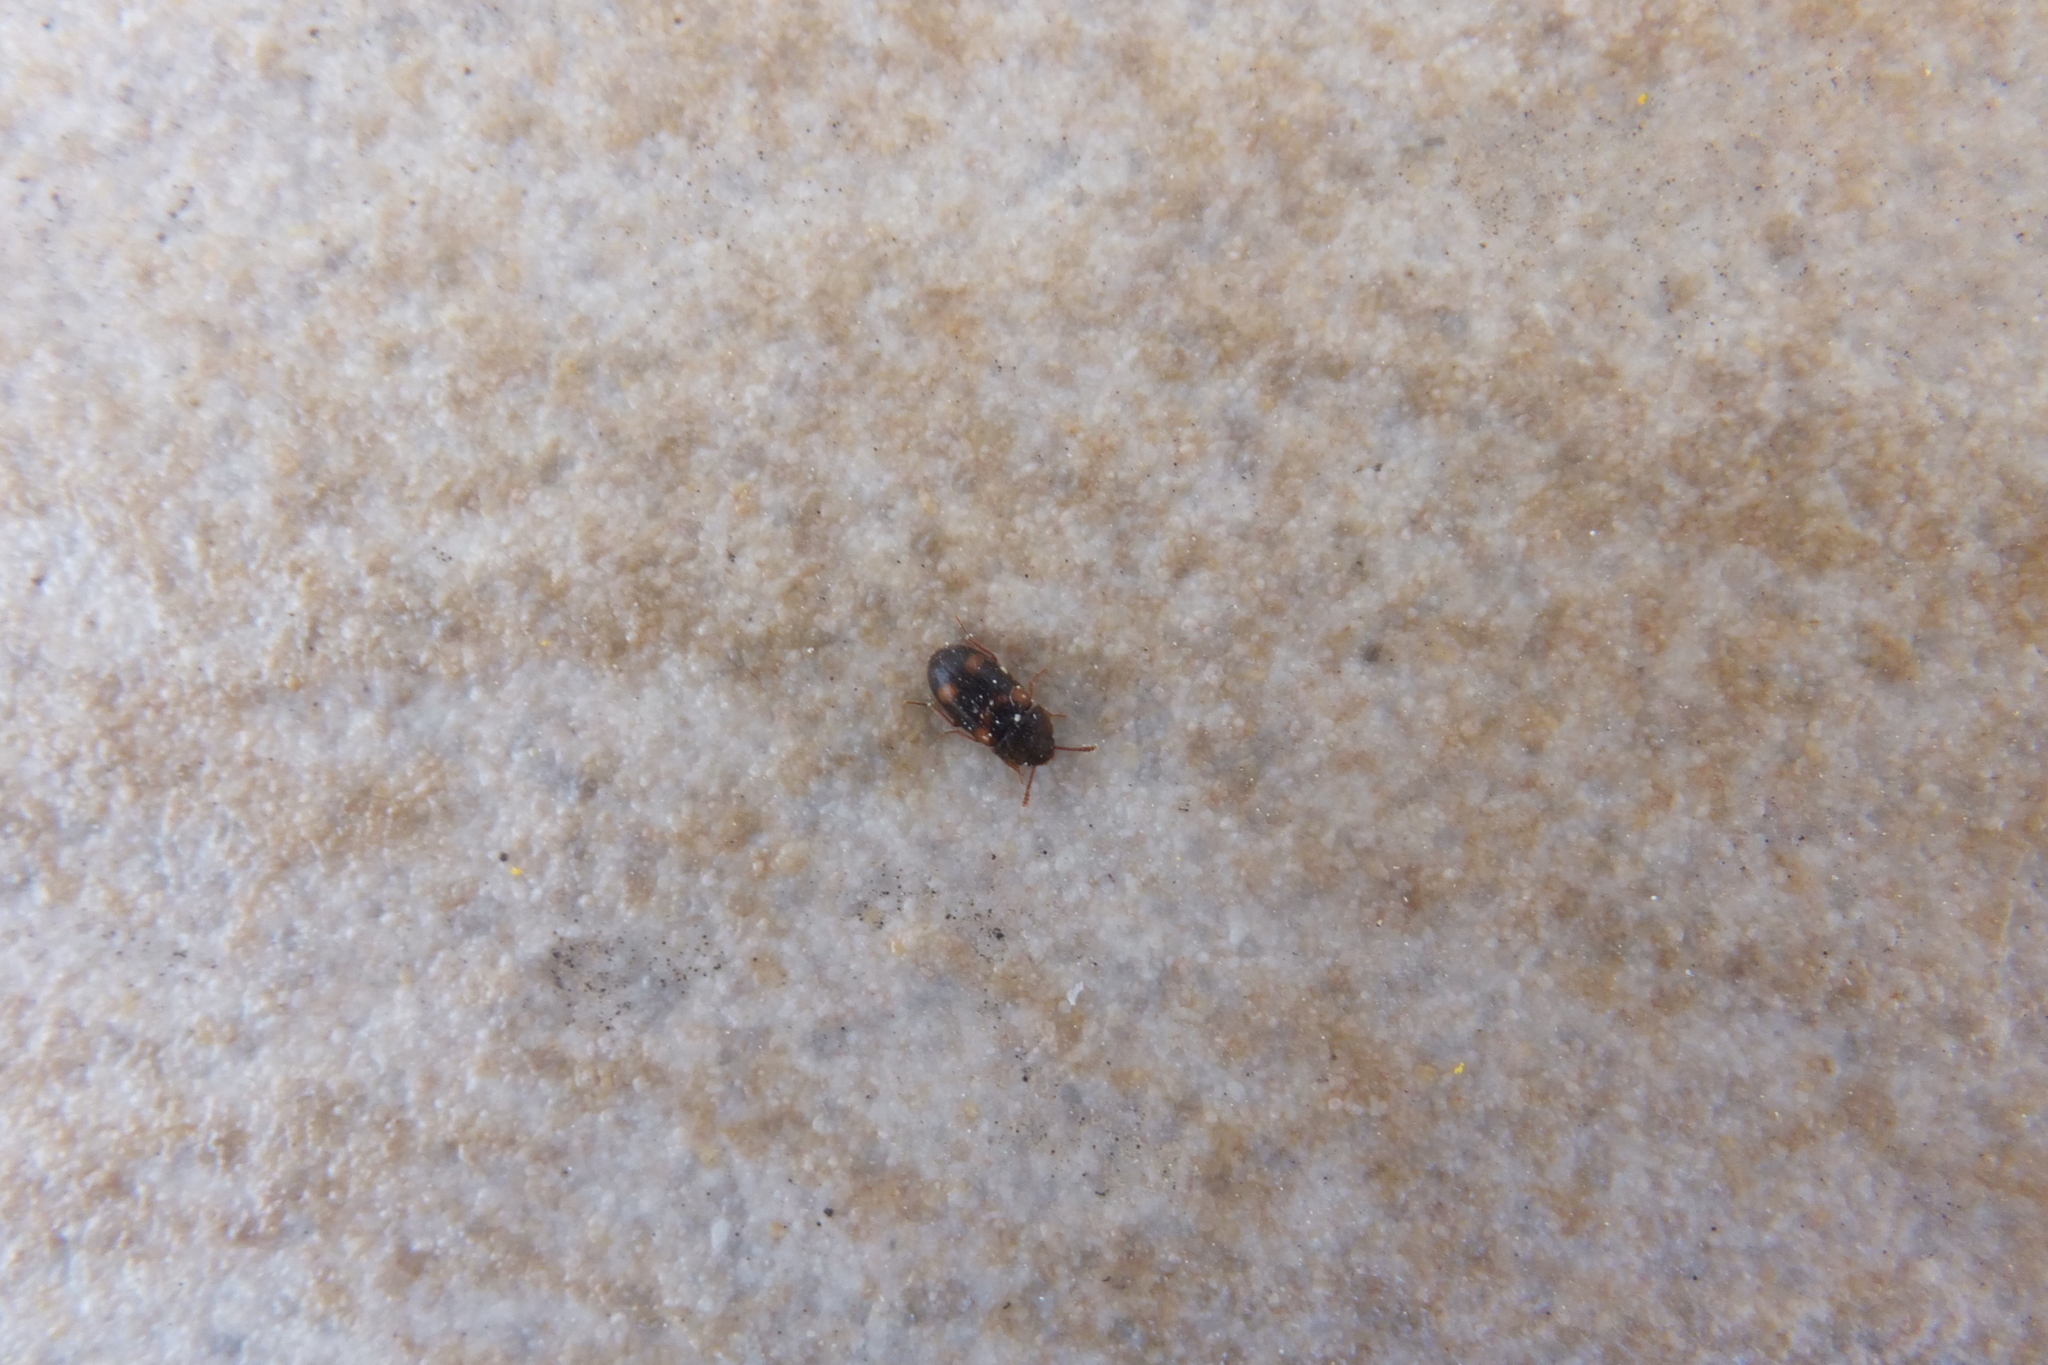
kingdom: Animalia
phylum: Arthropoda
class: Insecta
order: Coleoptera
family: Mycetophagidae
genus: Mycetophagus
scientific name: Mycetophagus quadriguttatus
